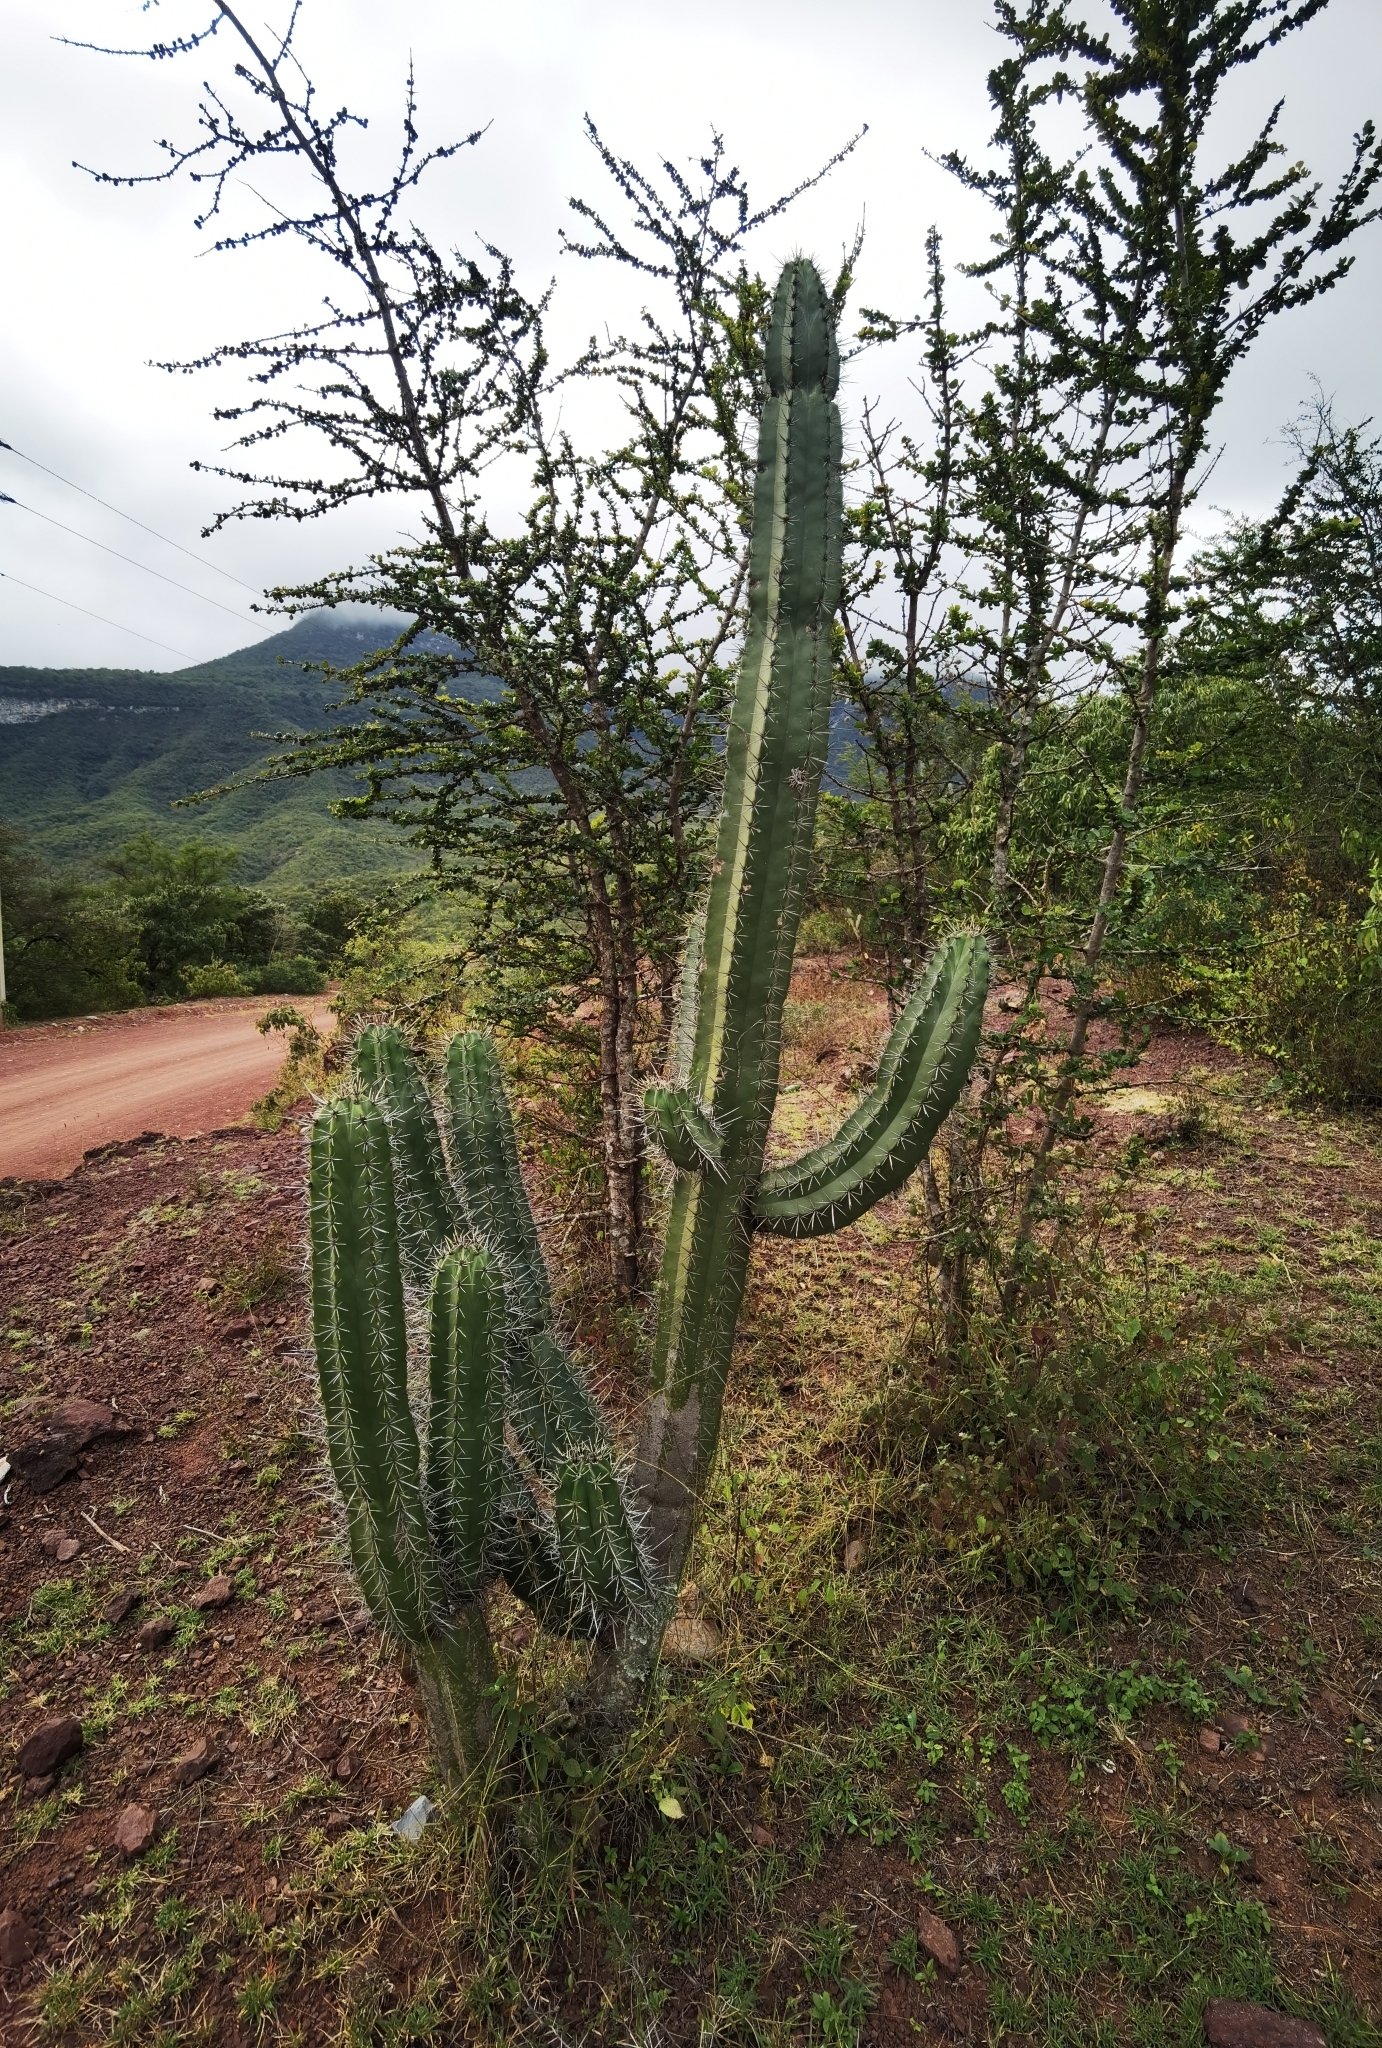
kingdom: Plantae
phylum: Tracheophyta
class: Magnoliopsida
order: Caryophyllales
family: Cactaceae
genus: Stenocereus
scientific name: Stenocereus huastecorum
